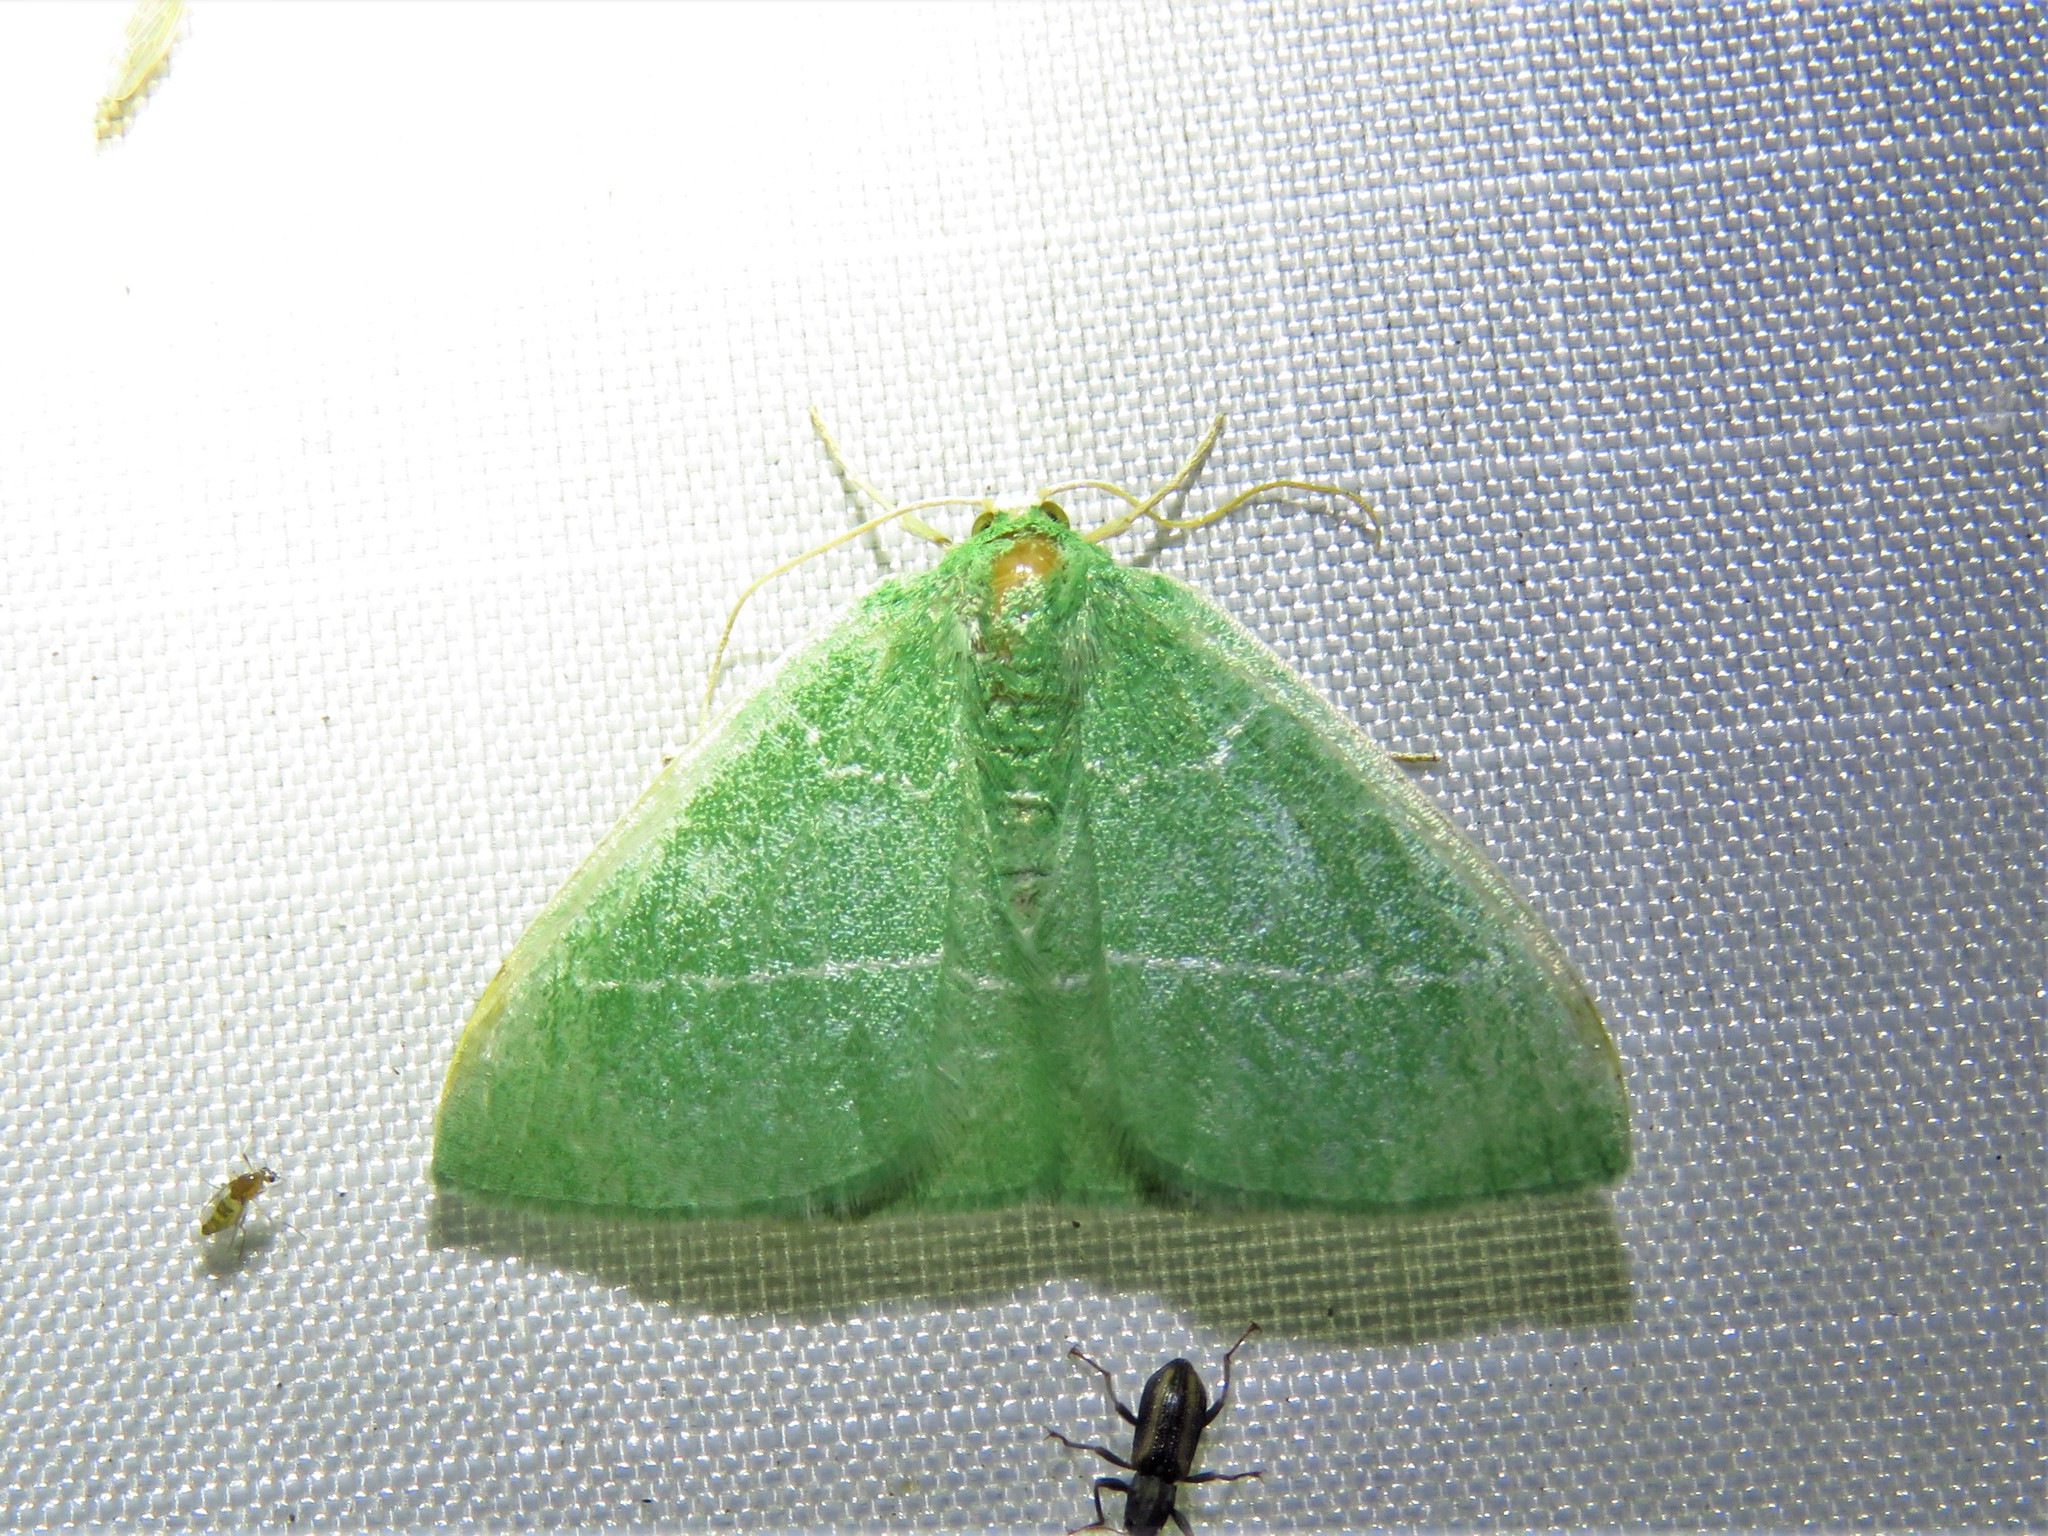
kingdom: Animalia
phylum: Arthropoda
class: Insecta
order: Lepidoptera
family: Geometridae
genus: Nemoria
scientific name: Nemoria zygotaria
